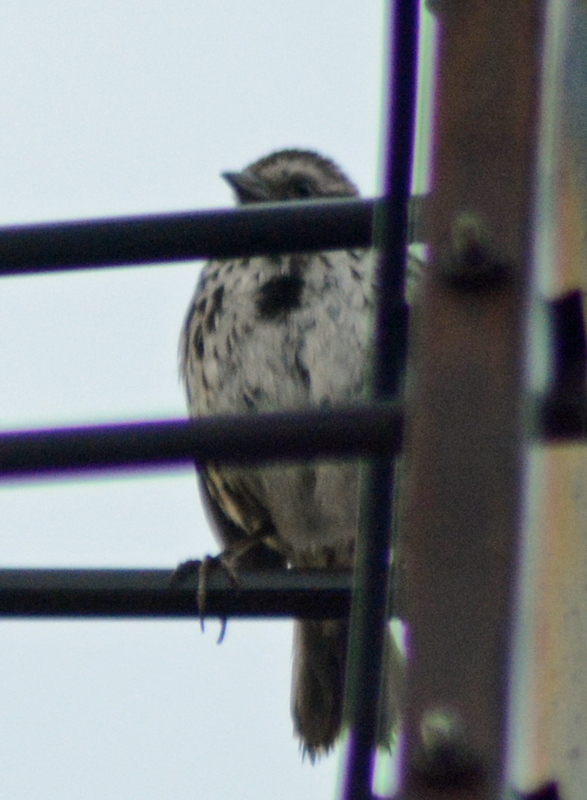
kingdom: Animalia
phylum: Chordata
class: Aves
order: Passeriformes
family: Passerellidae
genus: Melospiza
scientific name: Melospiza melodia
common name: Song sparrow
